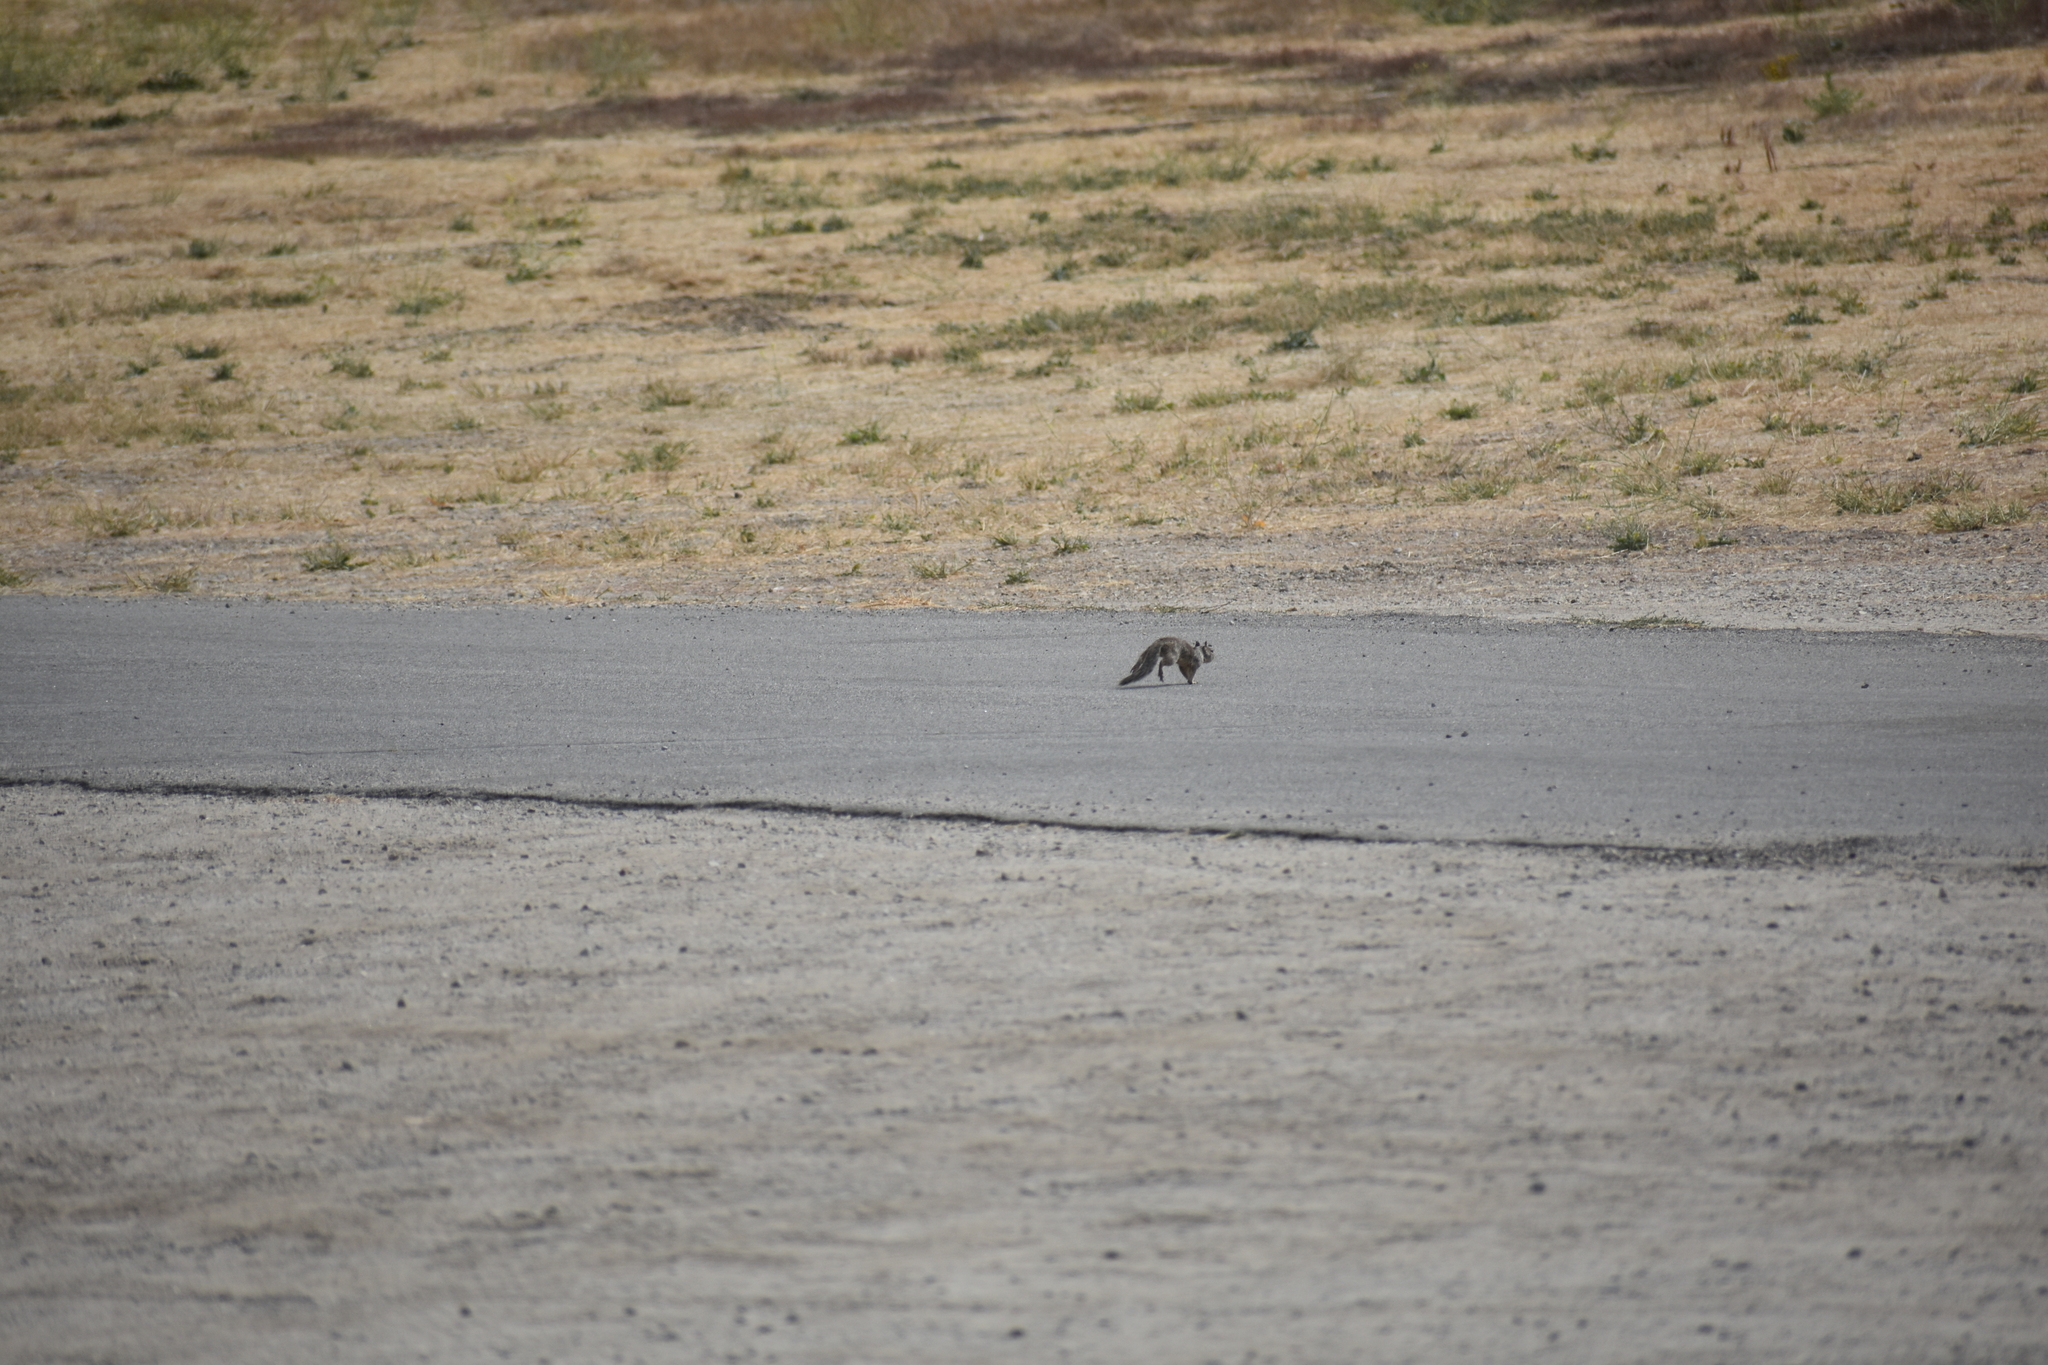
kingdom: Animalia
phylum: Chordata
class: Mammalia
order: Rodentia
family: Sciuridae
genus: Otospermophilus
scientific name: Otospermophilus beecheyi
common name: California ground squirrel
